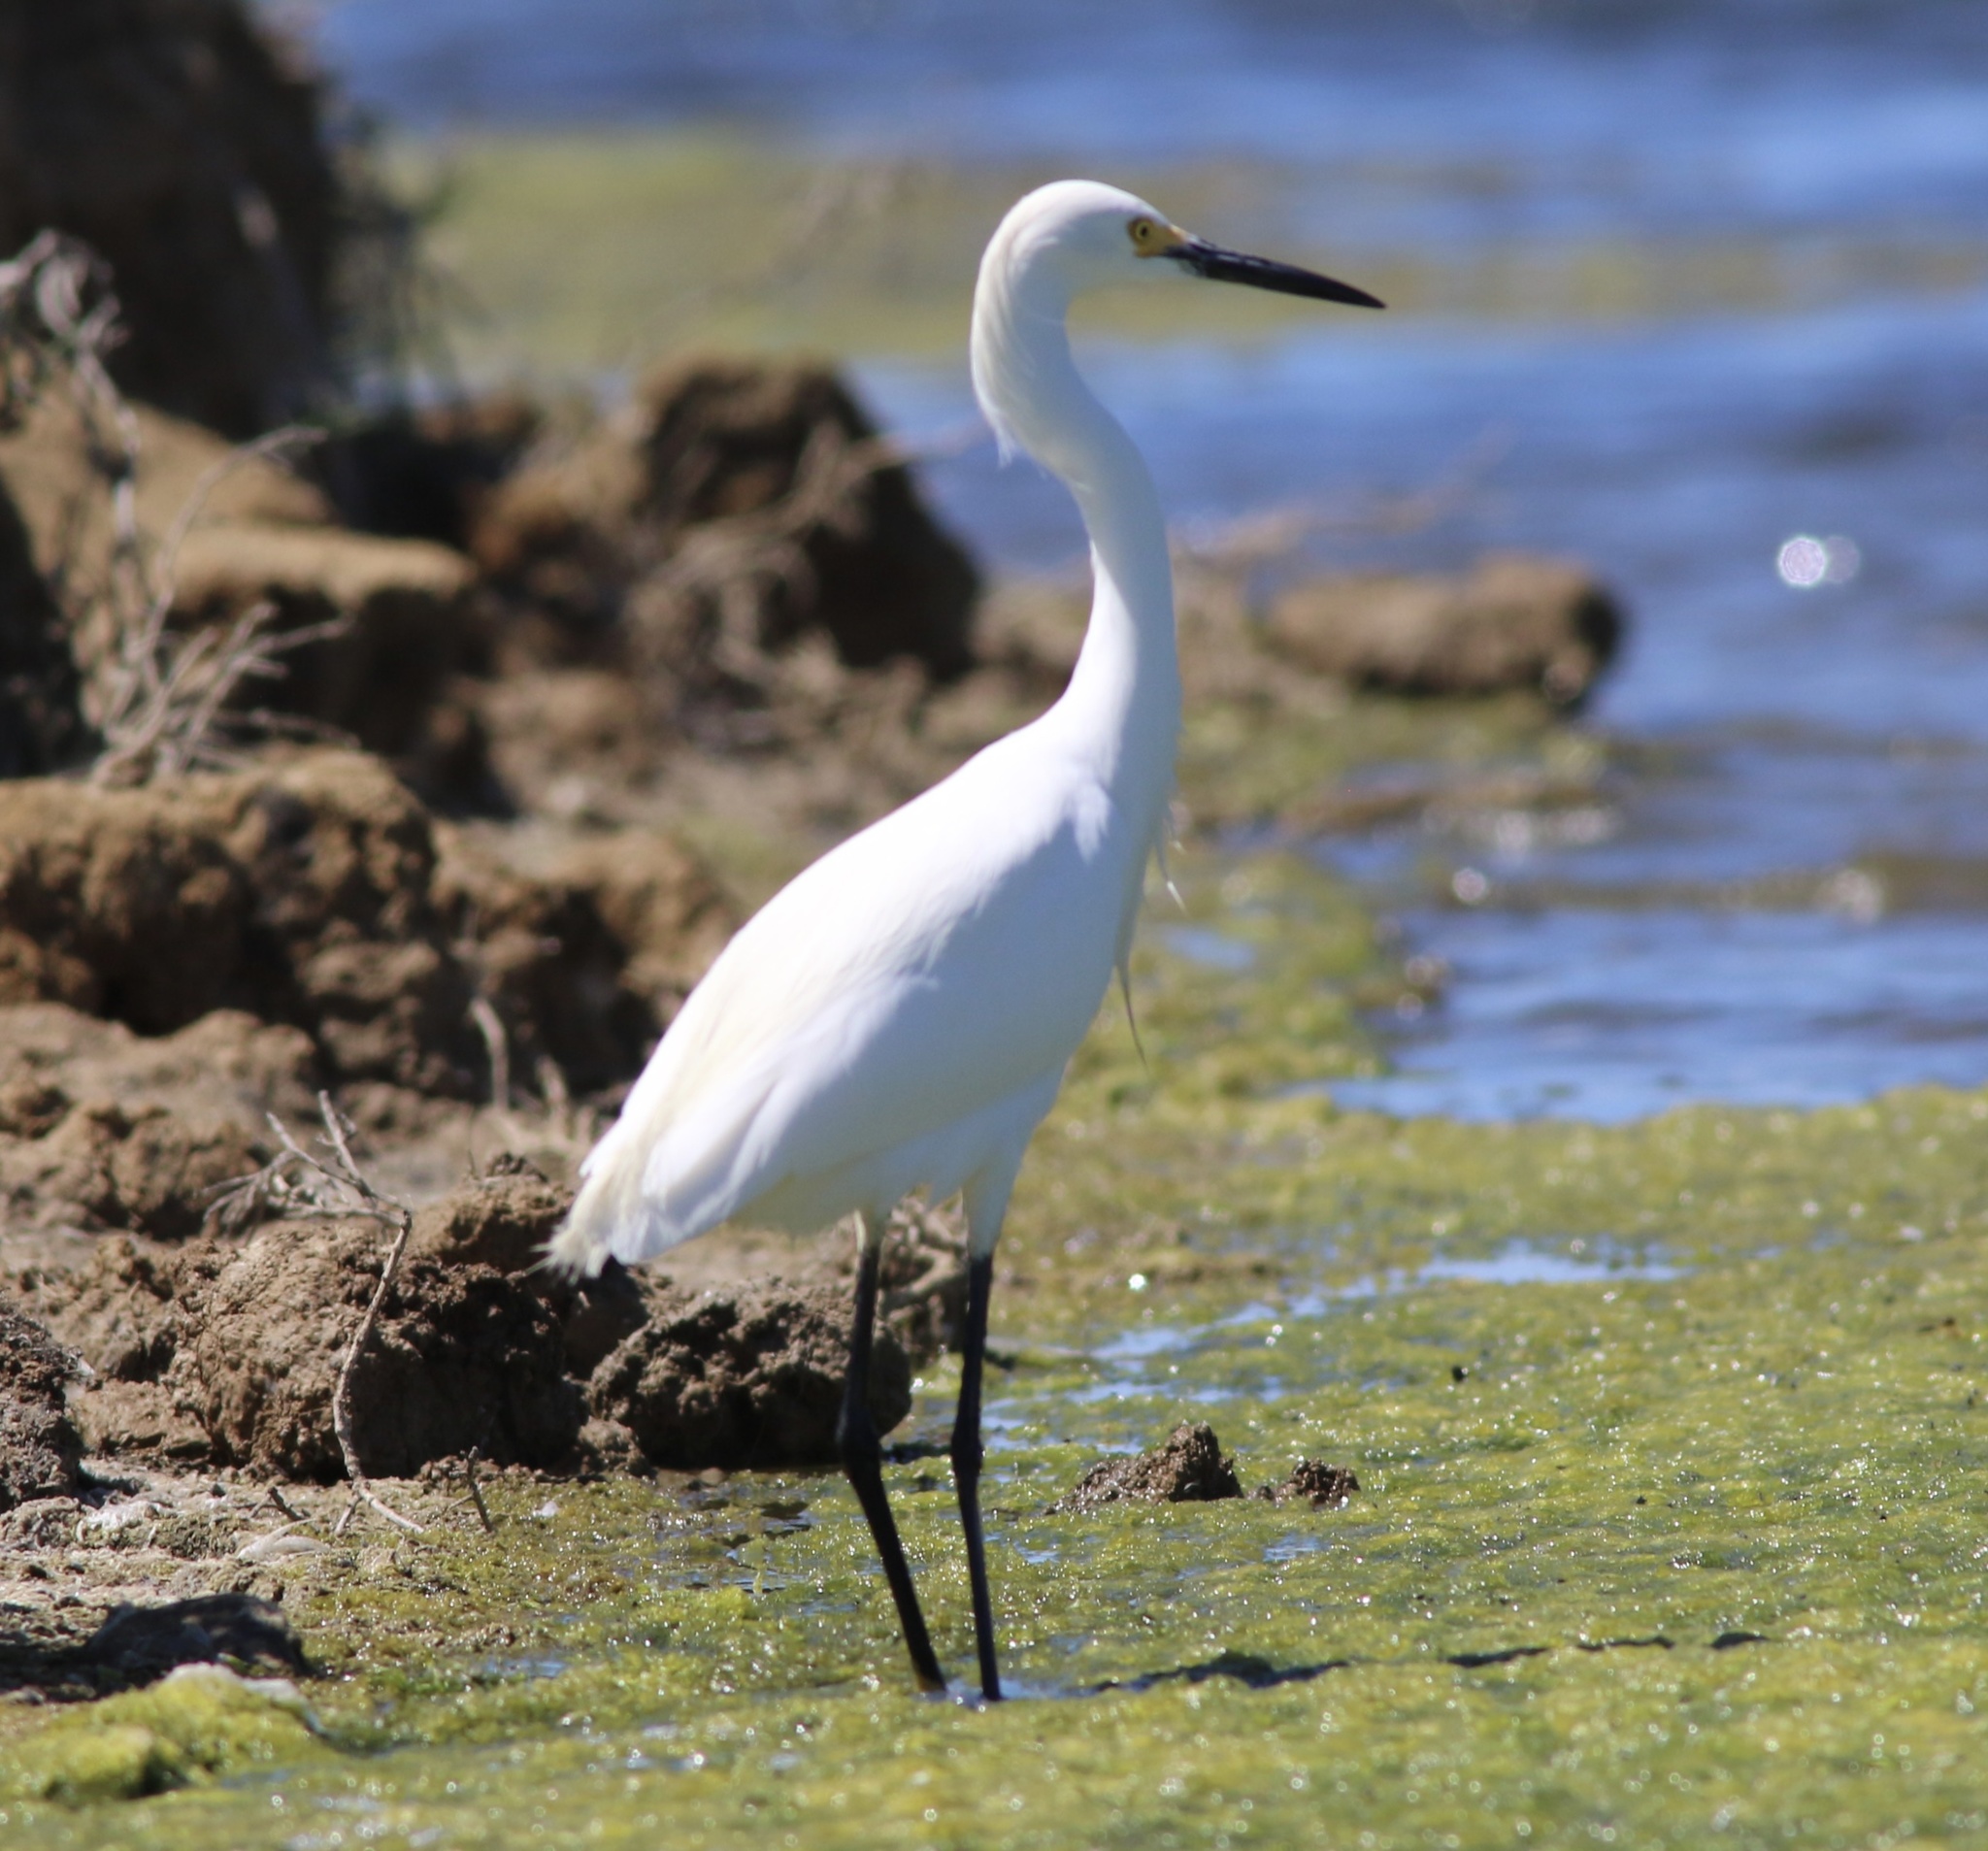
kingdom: Animalia
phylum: Chordata
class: Aves
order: Pelecaniformes
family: Ardeidae
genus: Egretta
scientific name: Egretta thula
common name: Snowy egret
